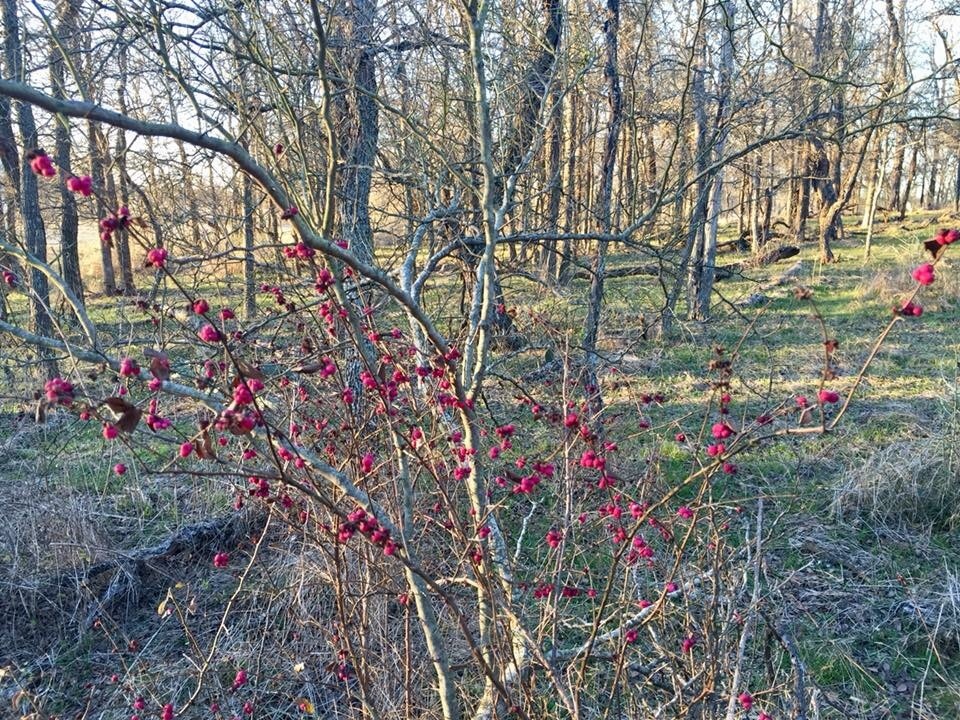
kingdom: Plantae
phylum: Tracheophyta
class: Magnoliopsida
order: Dipsacales
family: Caprifoliaceae
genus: Symphoricarpos
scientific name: Symphoricarpos orbiculatus
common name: Coralberry
